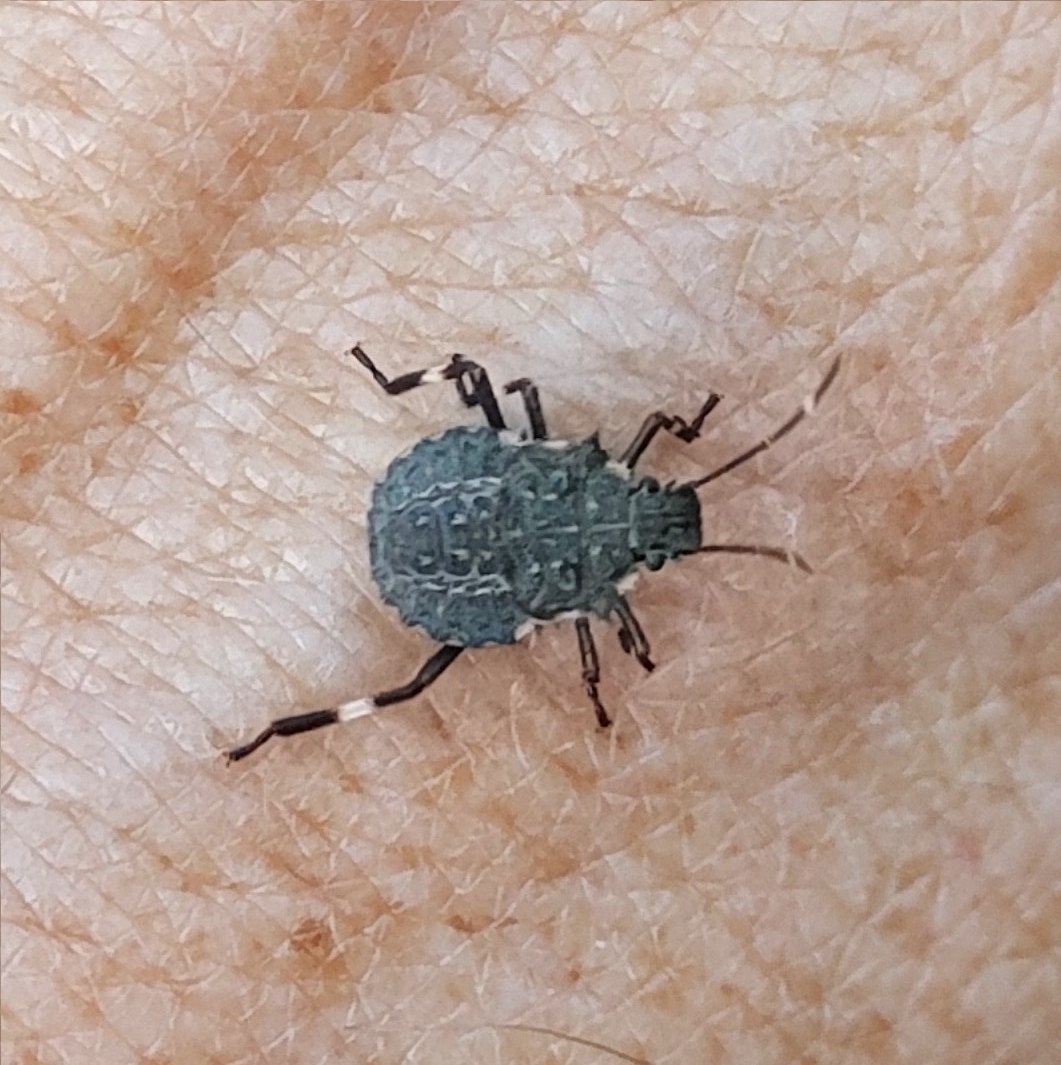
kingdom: Animalia
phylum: Arthropoda
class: Insecta
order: Hemiptera
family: Pentatomidae
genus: Halyomorpha
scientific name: Halyomorpha halys
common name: Brown marmorated stink bug
